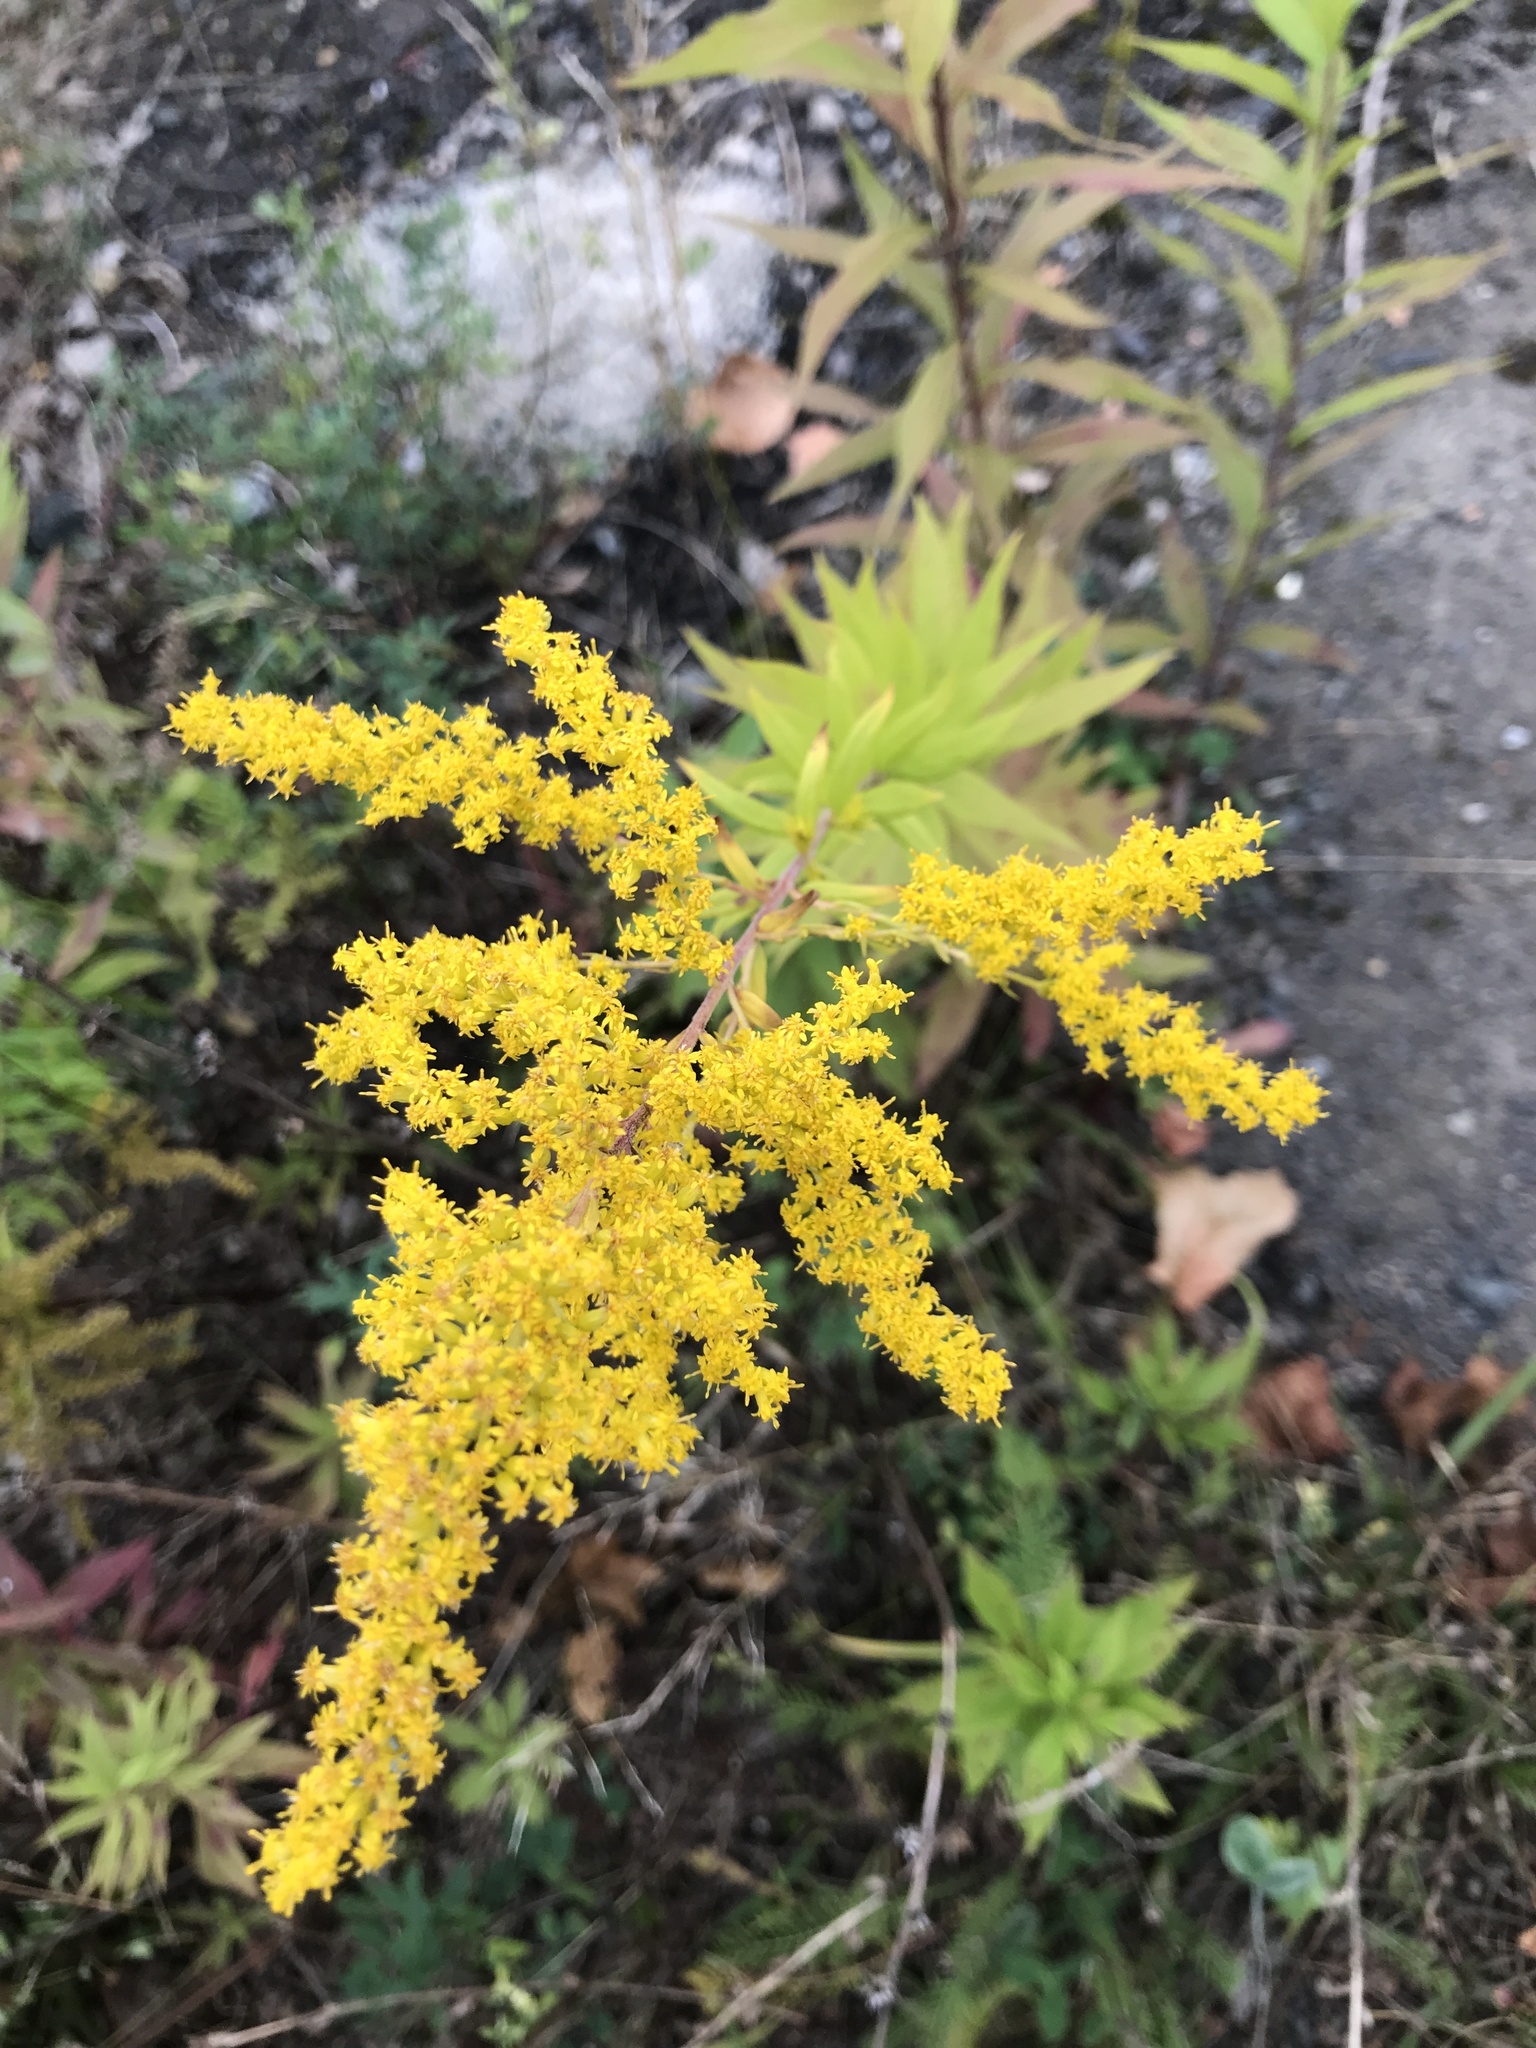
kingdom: Plantae
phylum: Tracheophyta
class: Magnoliopsida
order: Asterales
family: Asteraceae
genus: Solidago
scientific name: Solidago gigantea
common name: Giant goldenrod
